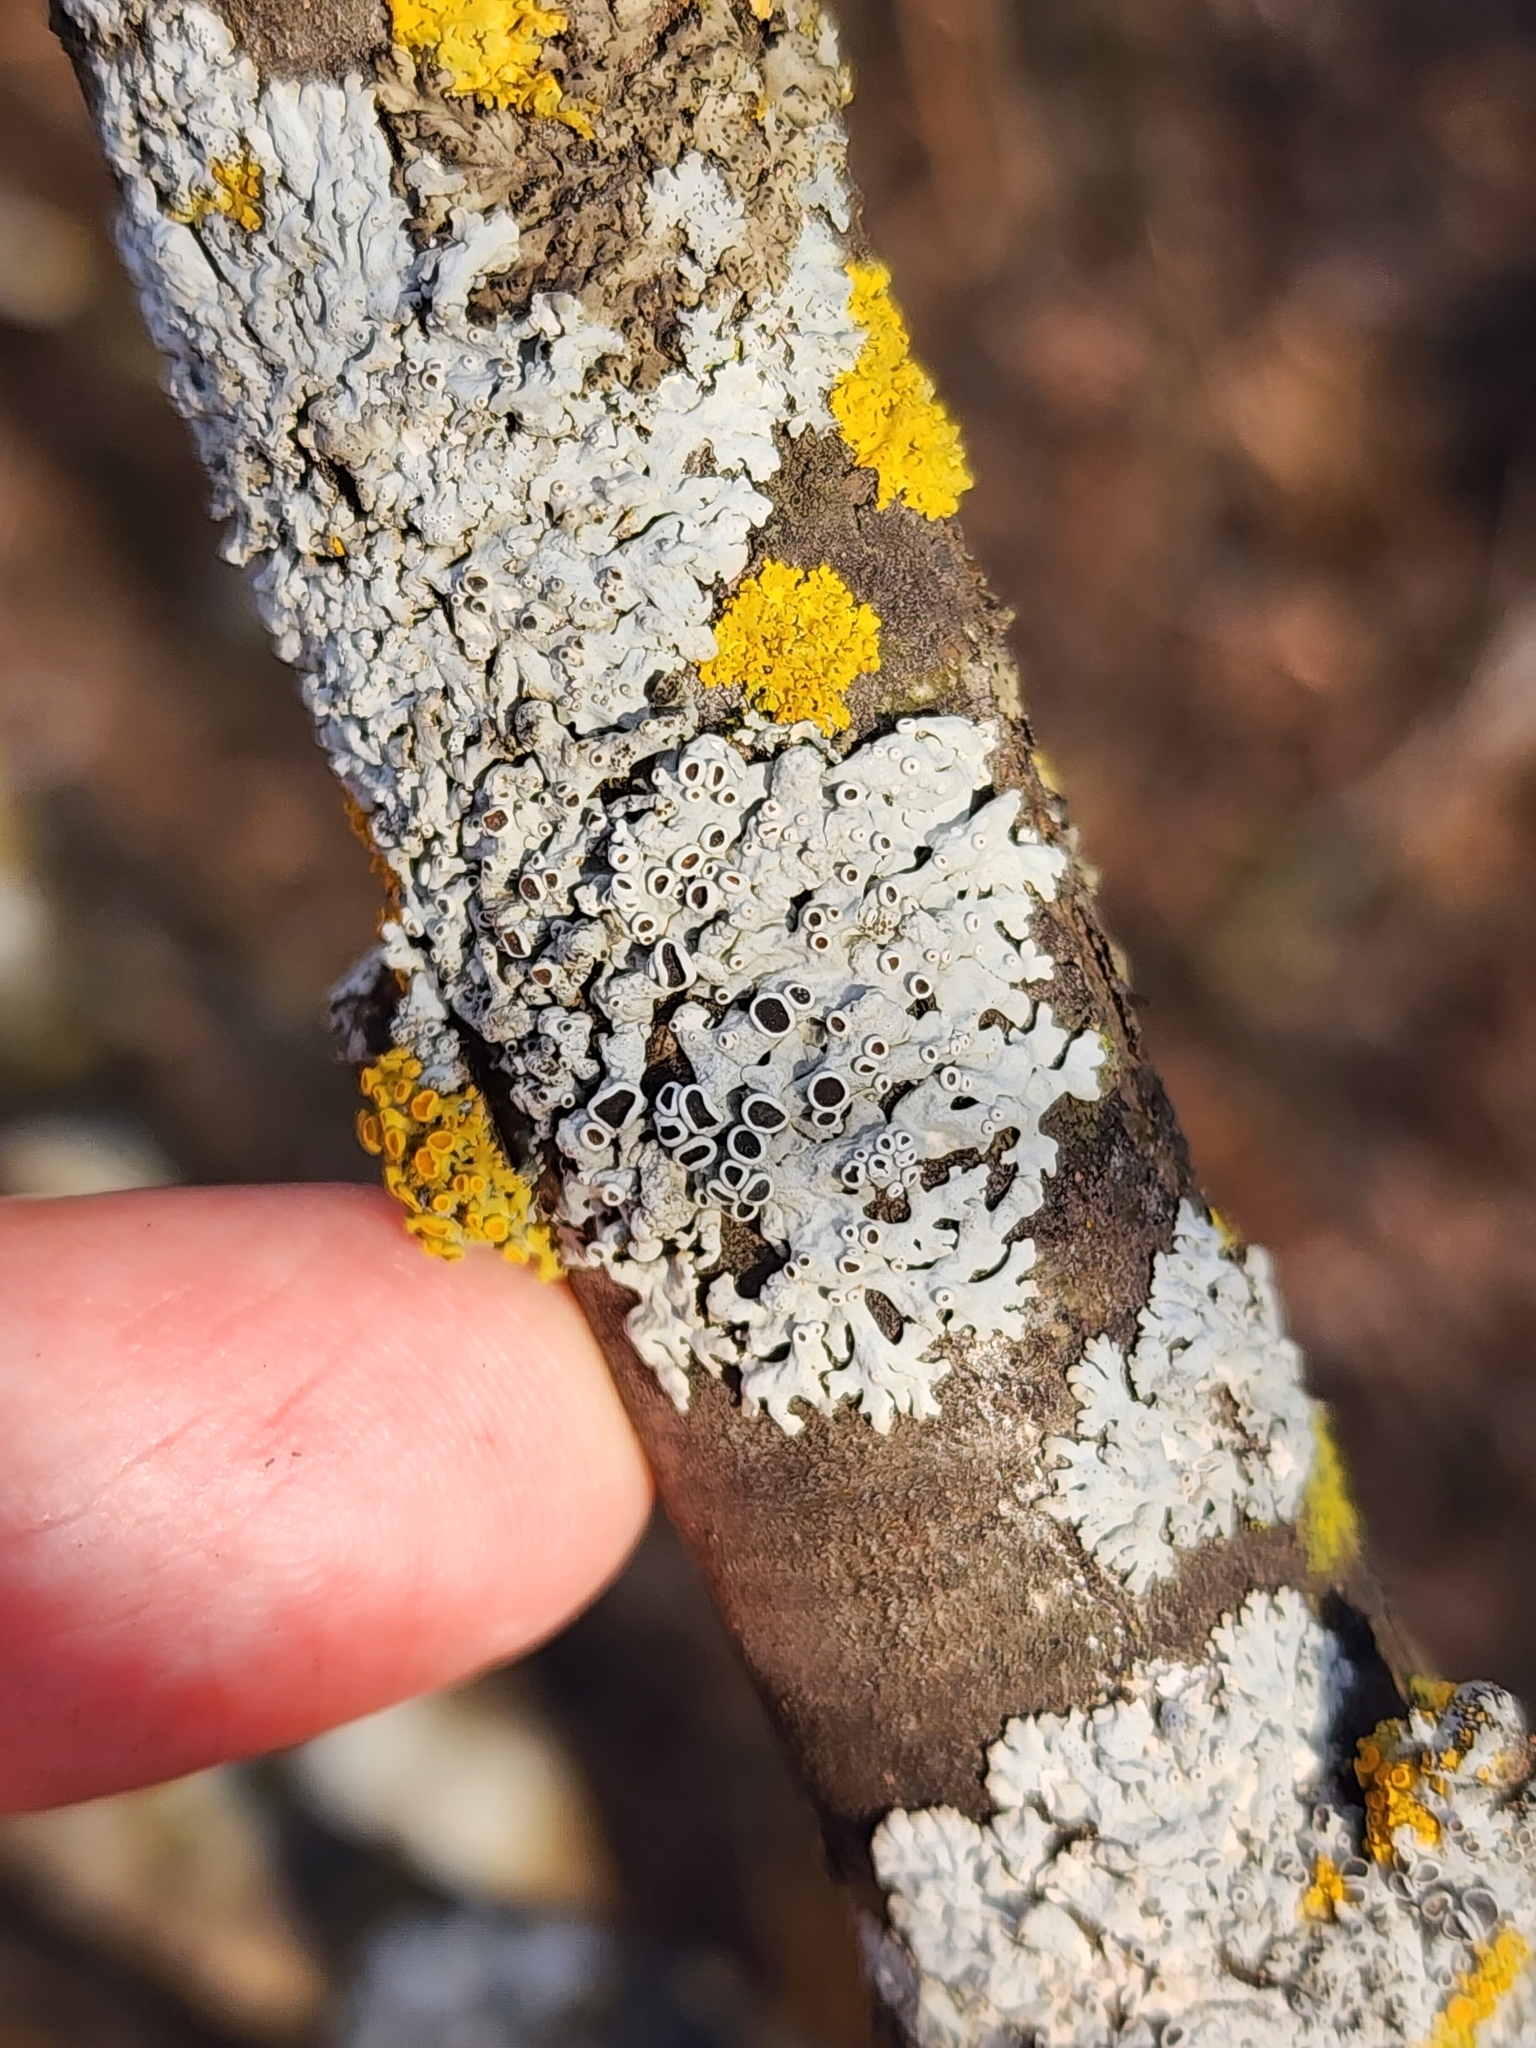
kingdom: Fungi
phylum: Ascomycota
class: Lecanoromycetes
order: Caliciales
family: Physciaceae
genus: Physcia
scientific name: Physcia stellaris
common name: Star rosette lichen
